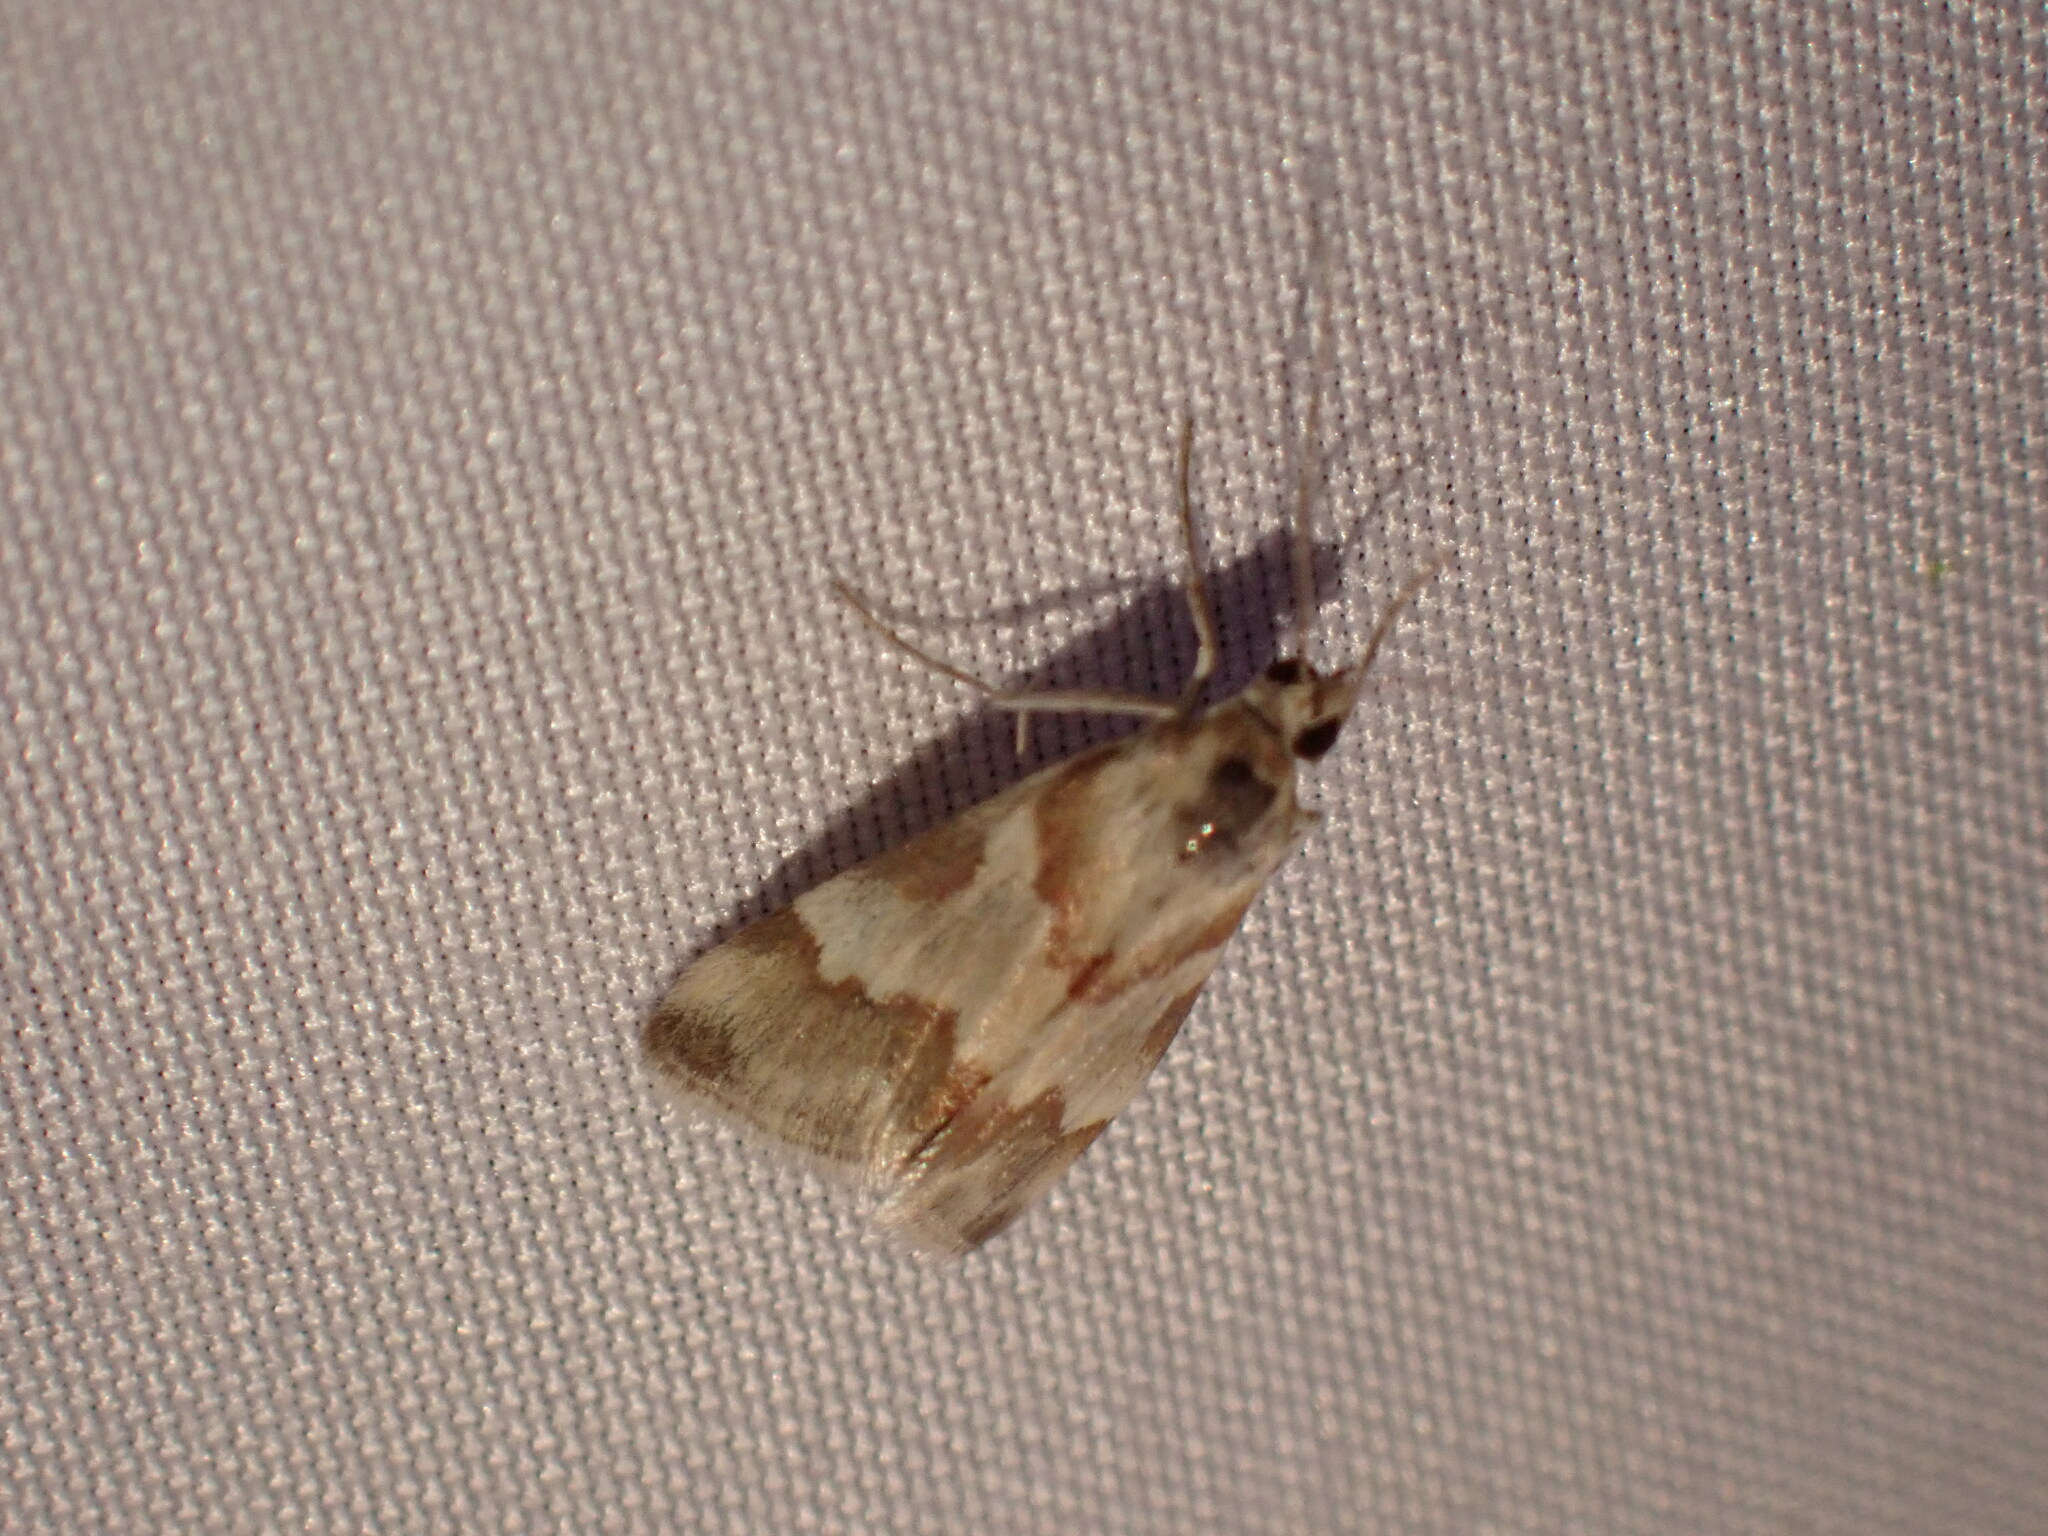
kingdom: Animalia
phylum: Arthropoda
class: Insecta
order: Lepidoptera
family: Crambidae
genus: Noctuelia
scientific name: Noctuelia Mimoschinia rufofascialis
